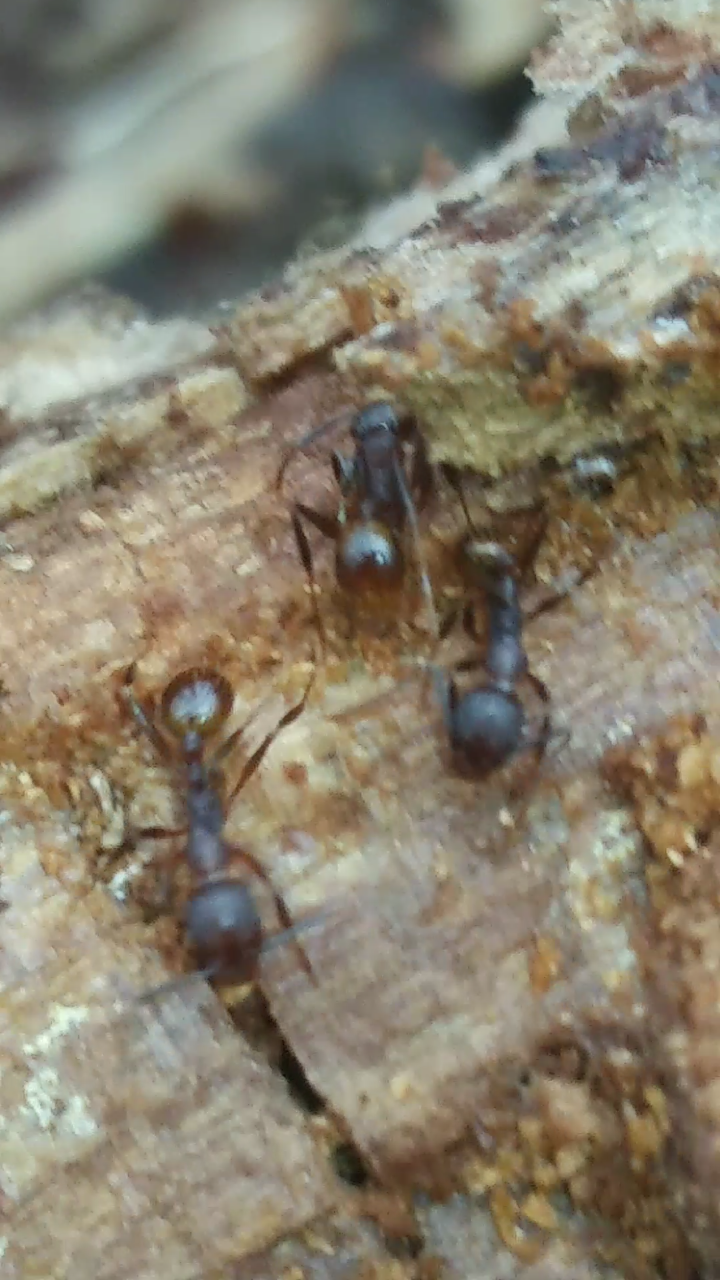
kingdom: Animalia
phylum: Arthropoda
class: Insecta
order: Hymenoptera
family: Formicidae
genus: Aphaenogaster
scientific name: Aphaenogaster fulva
